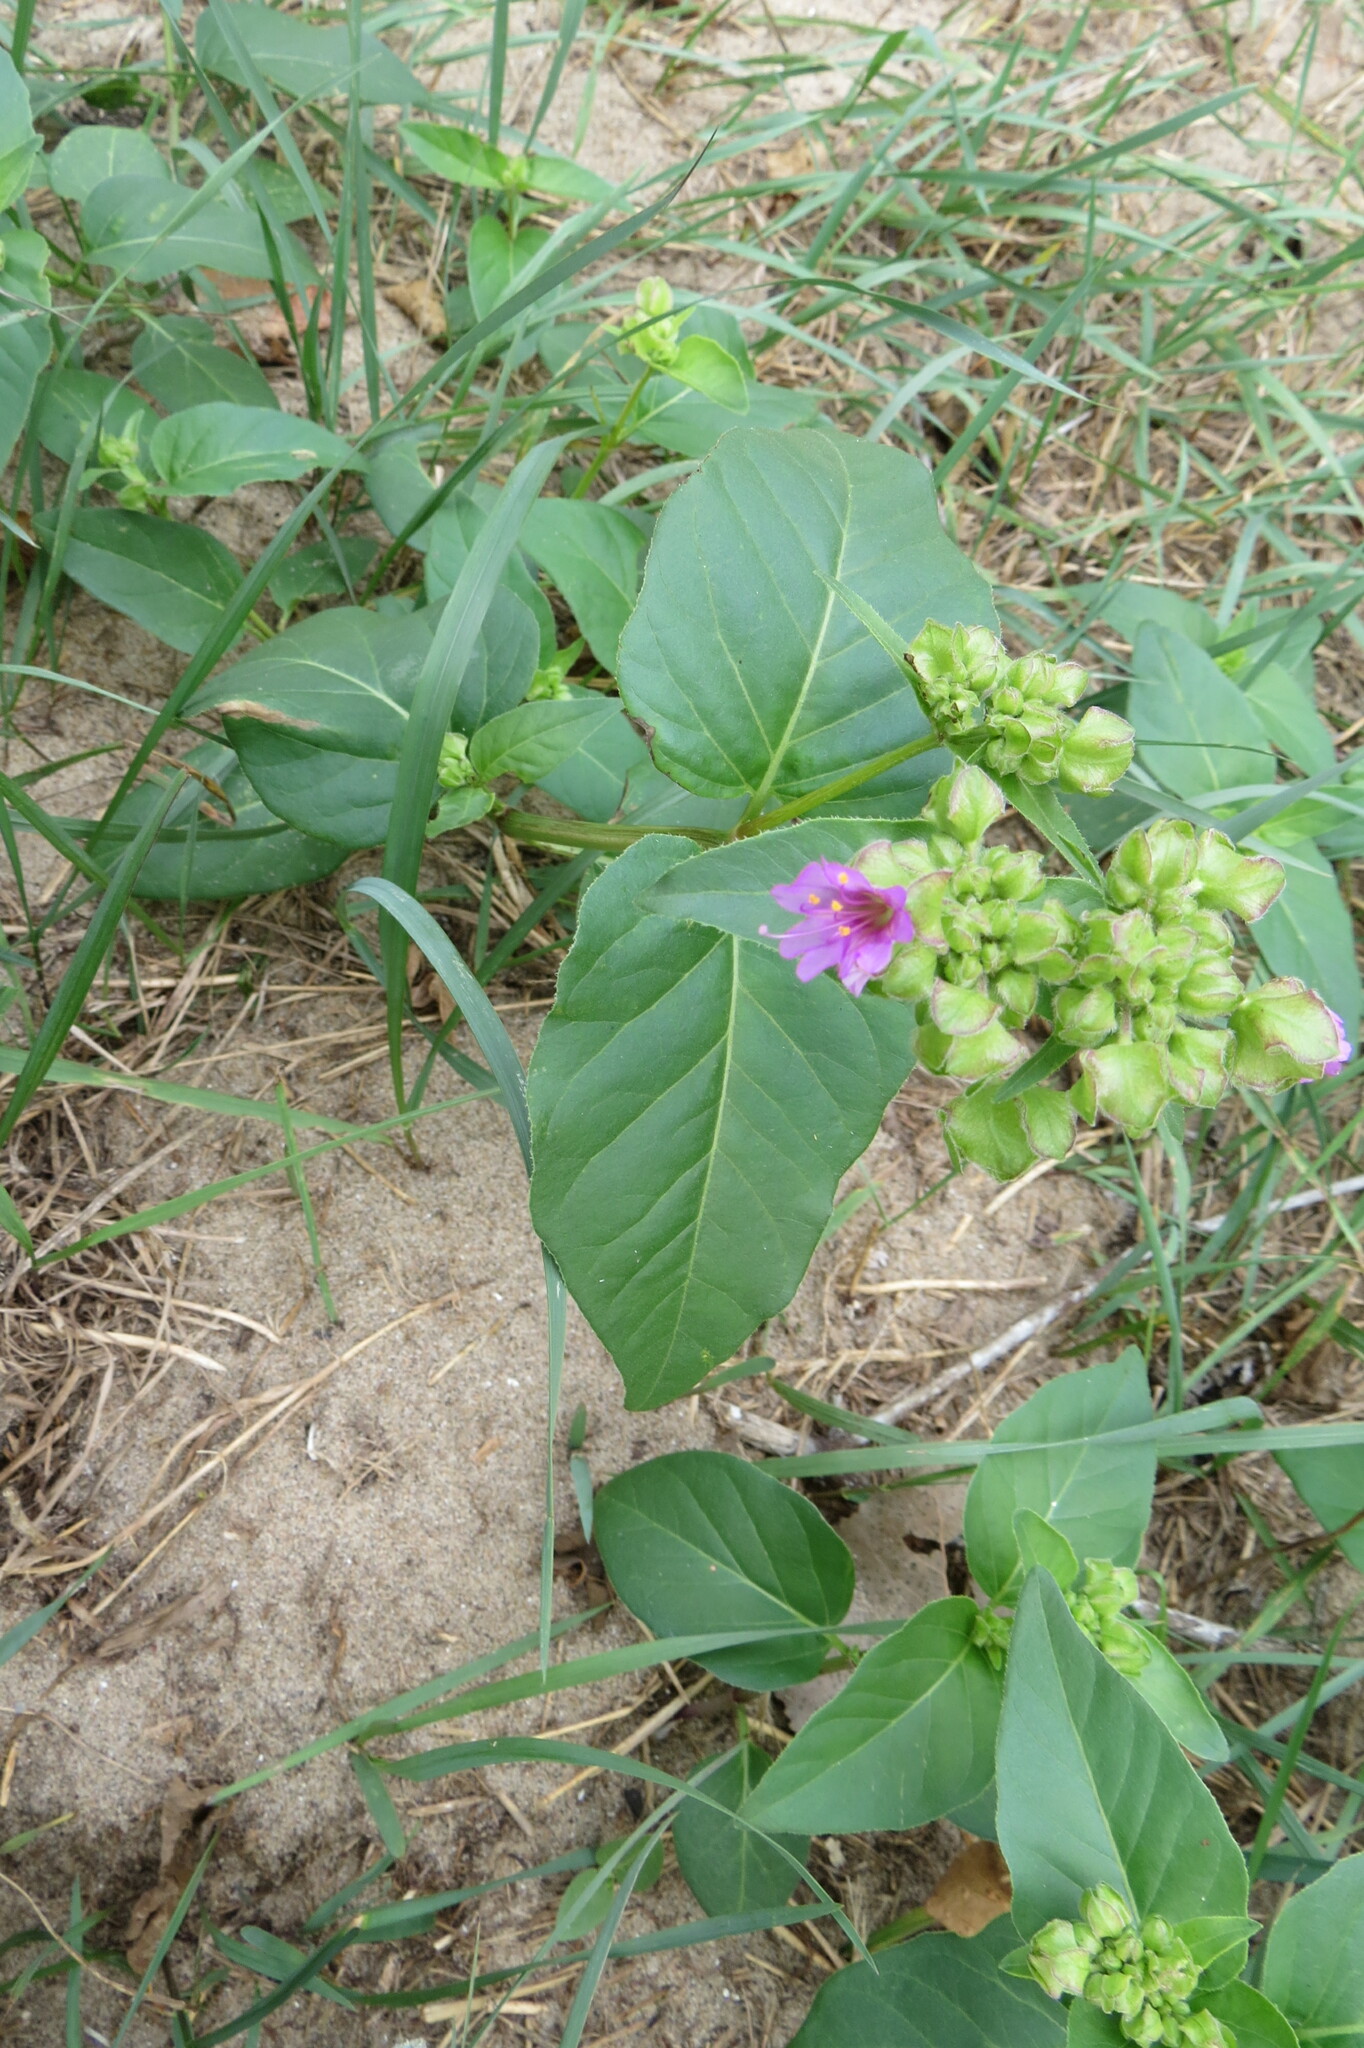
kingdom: Plantae
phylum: Tracheophyta
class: Magnoliopsida
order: Caryophyllales
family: Nyctaginaceae
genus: Mirabilis
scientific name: Mirabilis nyctaginea
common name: Umbrella wort
